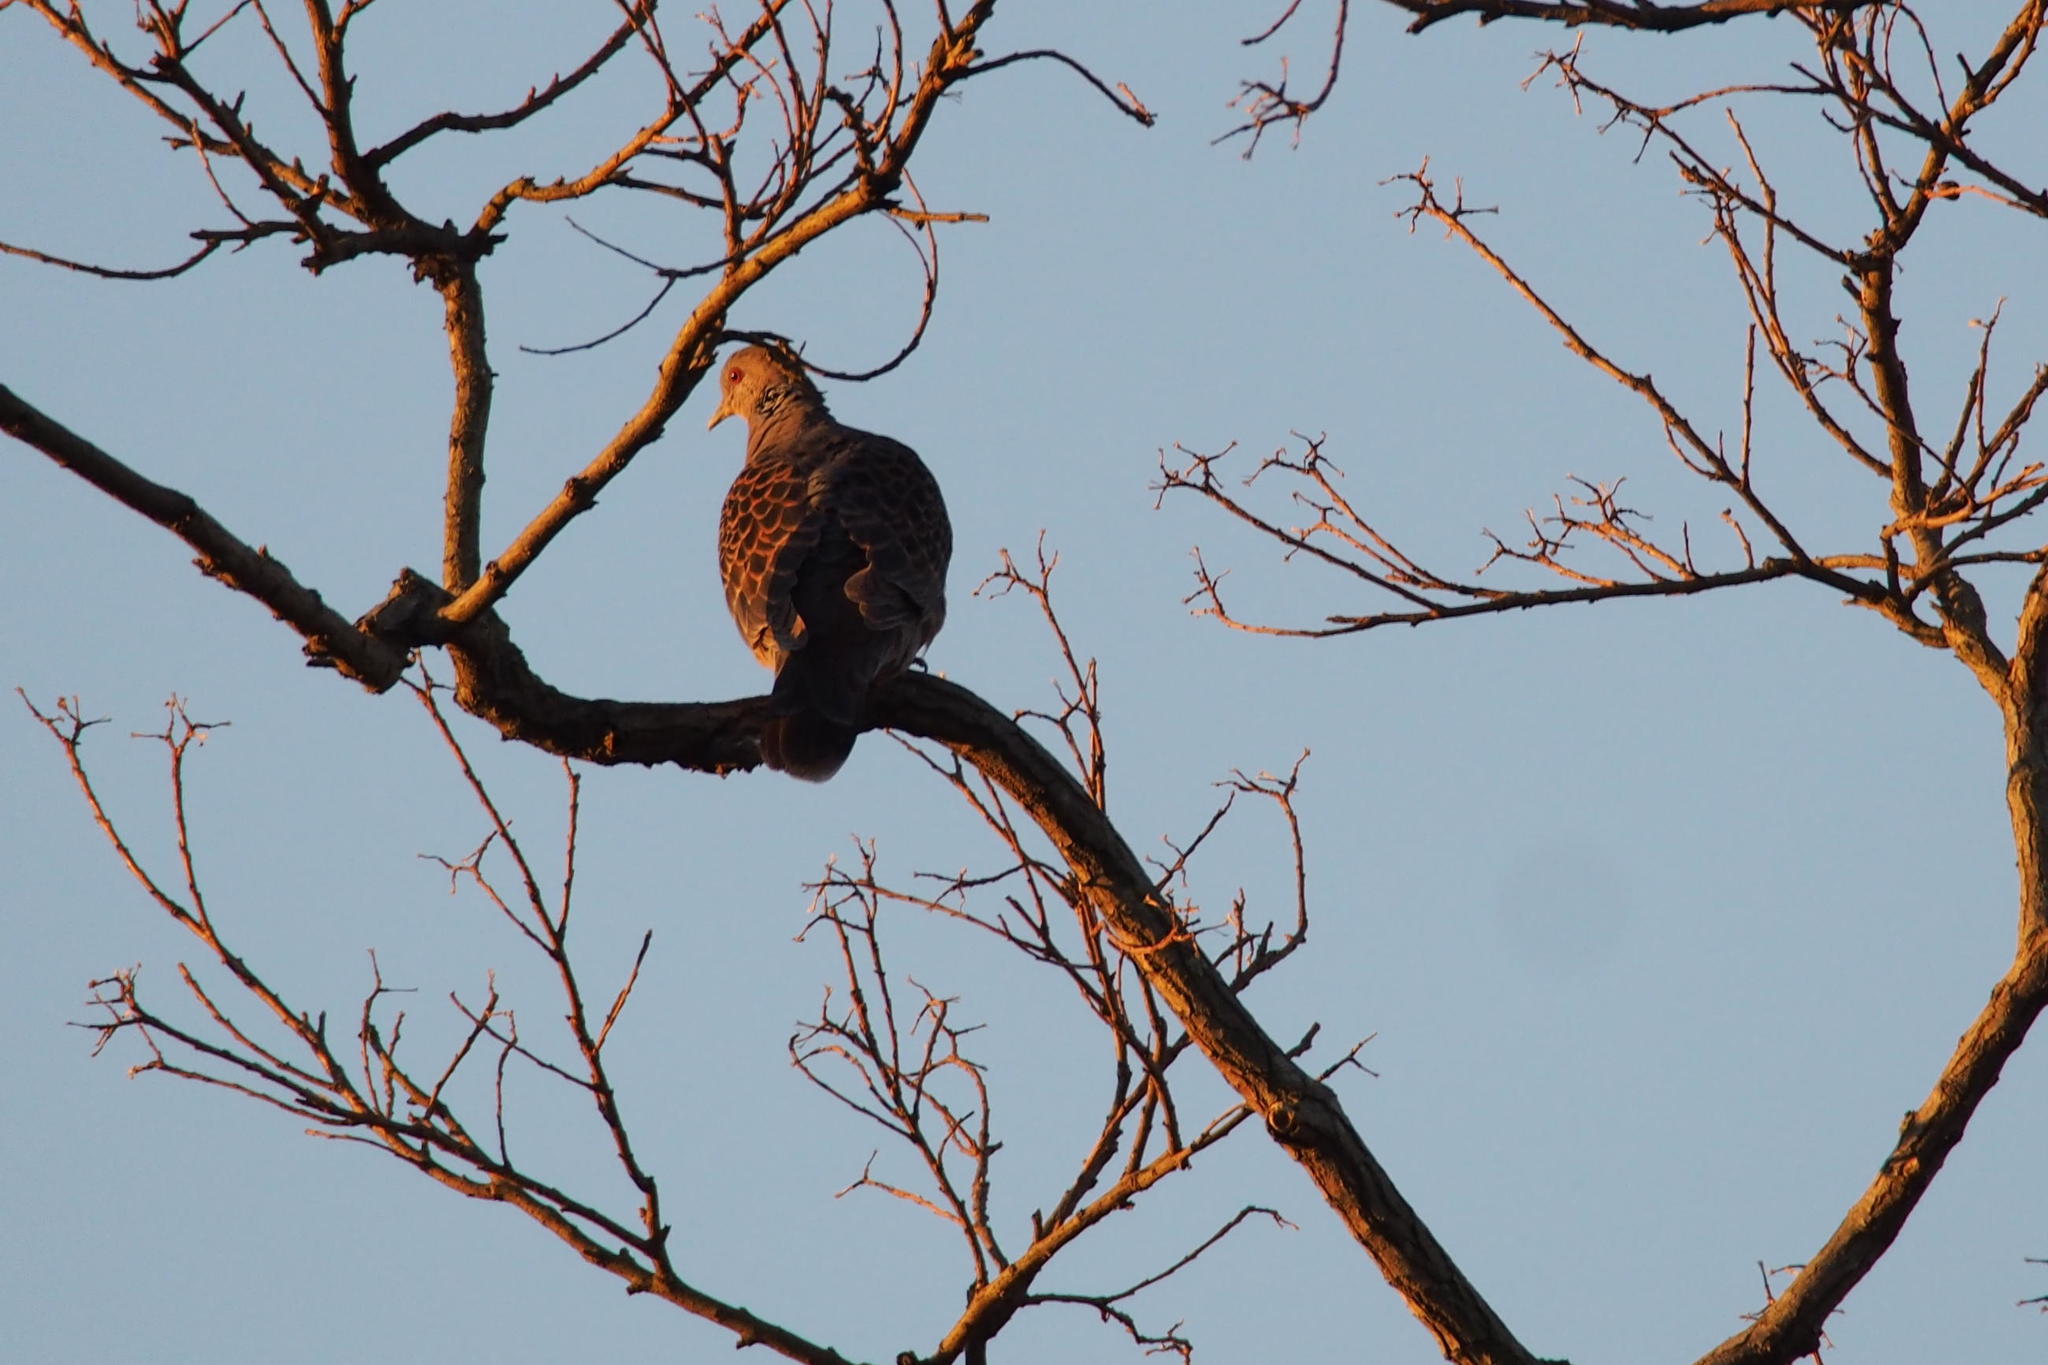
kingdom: Animalia
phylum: Chordata
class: Aves
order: Columbiformes
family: Columbidae
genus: Streptopelia
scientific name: Streptopelia orientalis
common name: Oriental turtle dove
